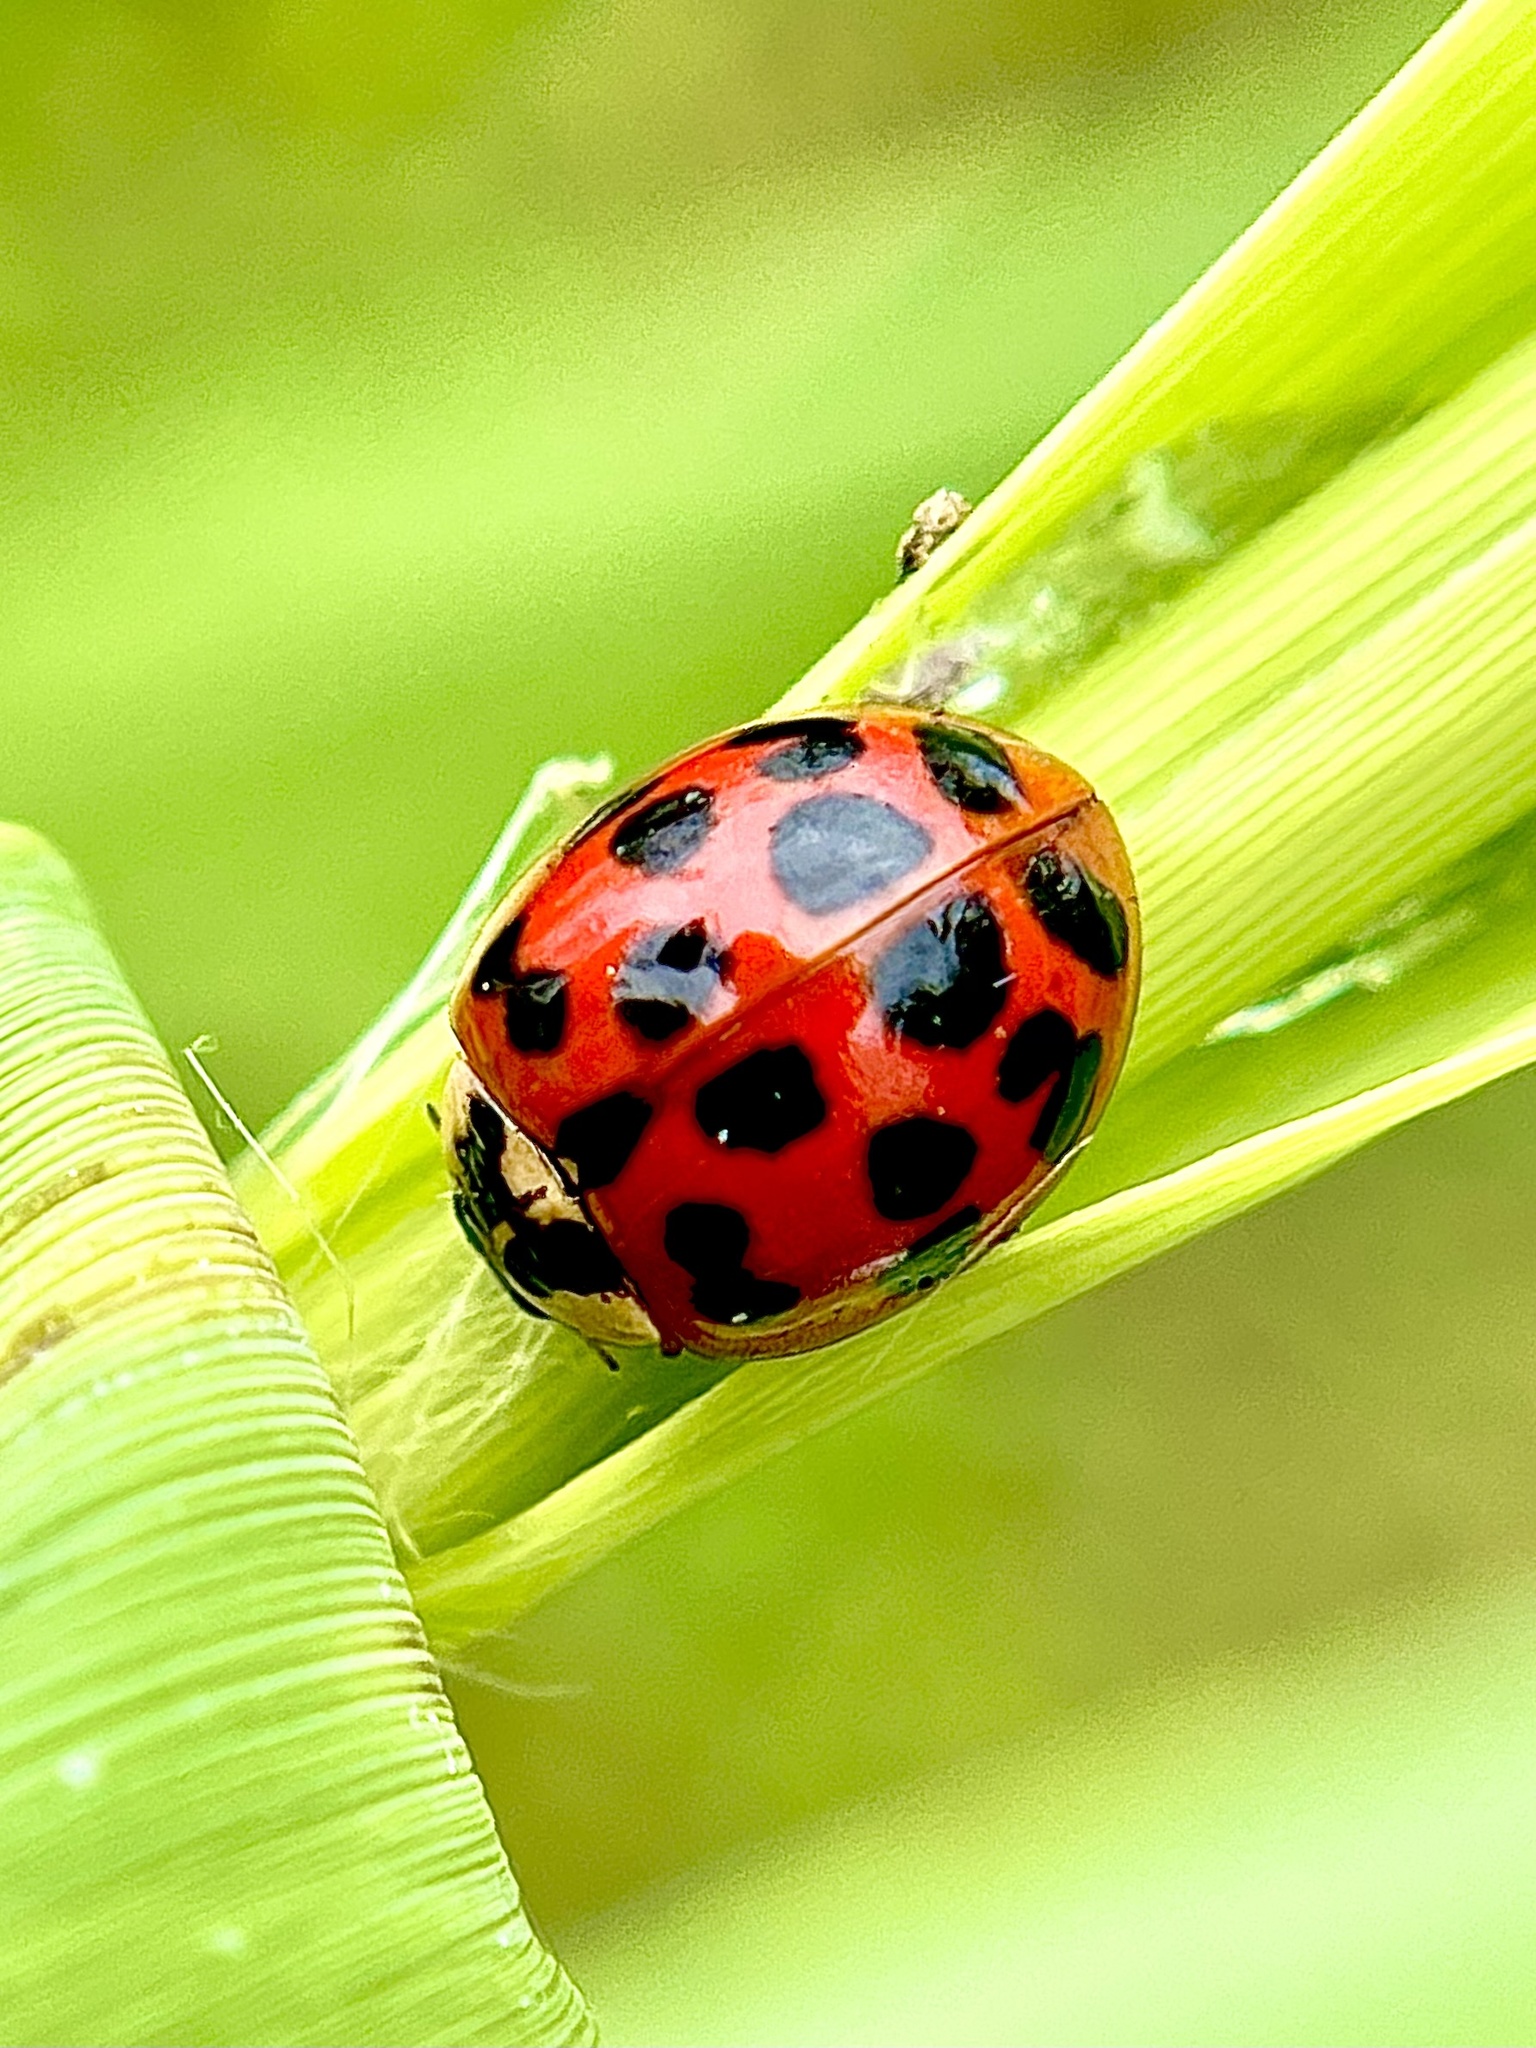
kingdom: Animalia
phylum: Arthropoda
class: Insecta
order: Coleoptera
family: Coccinellidae
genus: Harmonia
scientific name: Harmonia axyridis
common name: Harlequin ladybird
